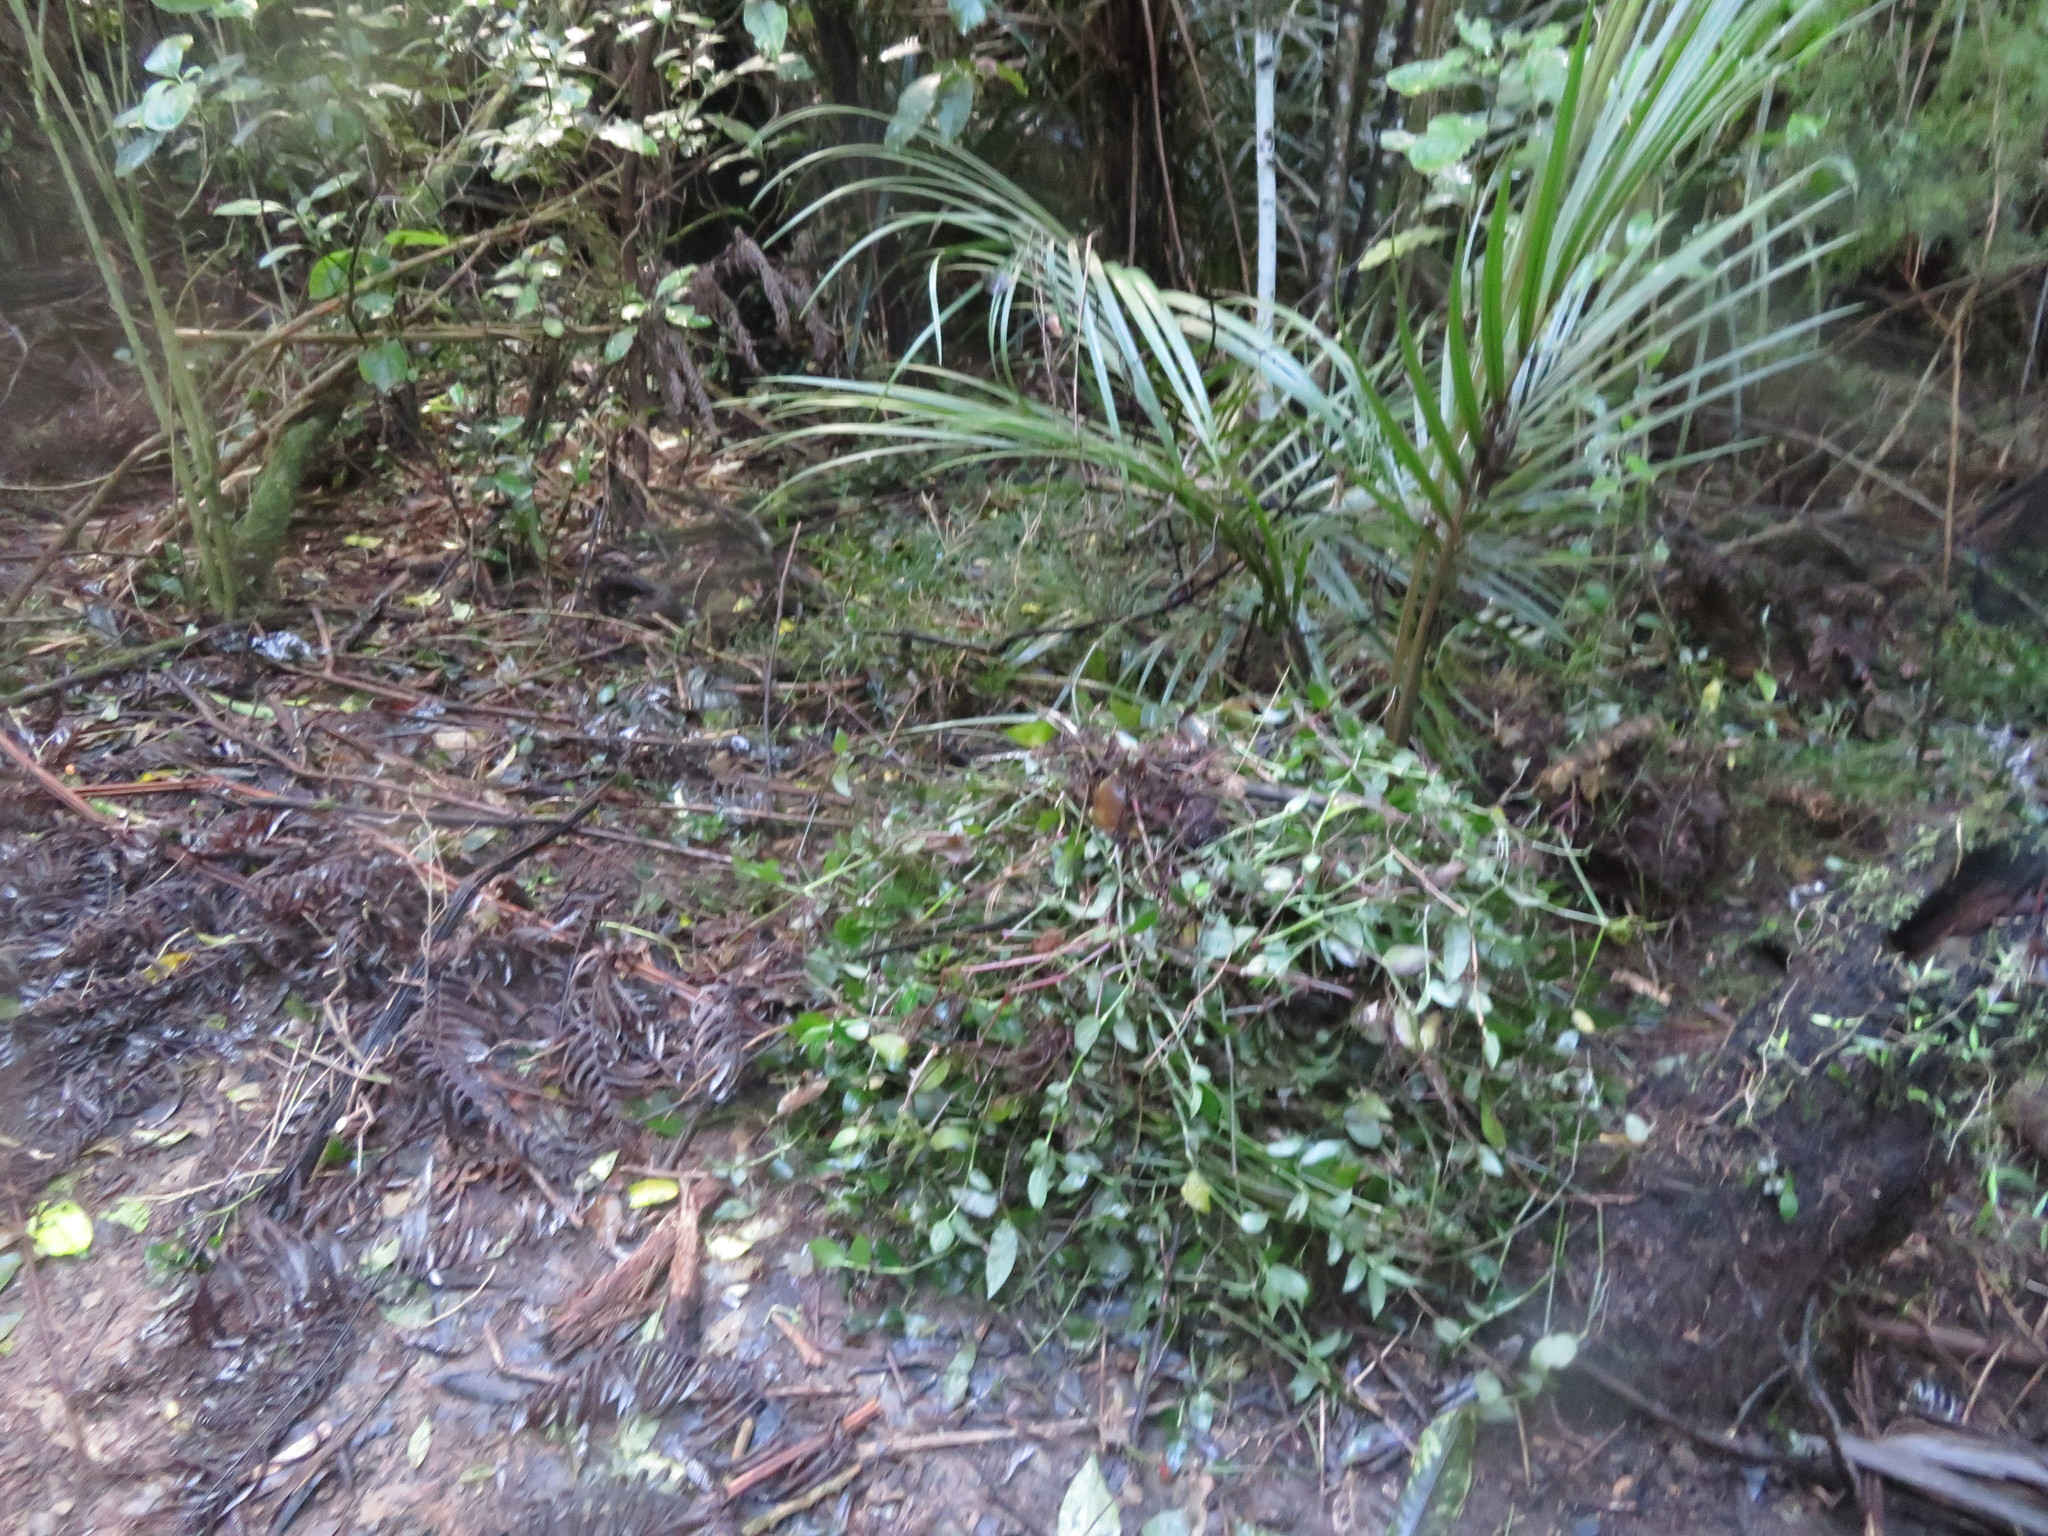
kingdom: Plantae
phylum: Tracheophyta
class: Liliopsida
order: Commelinales
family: Commelinaceae
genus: Tradescantia
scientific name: Tradescantia fluminensis
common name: Wandering-jew
